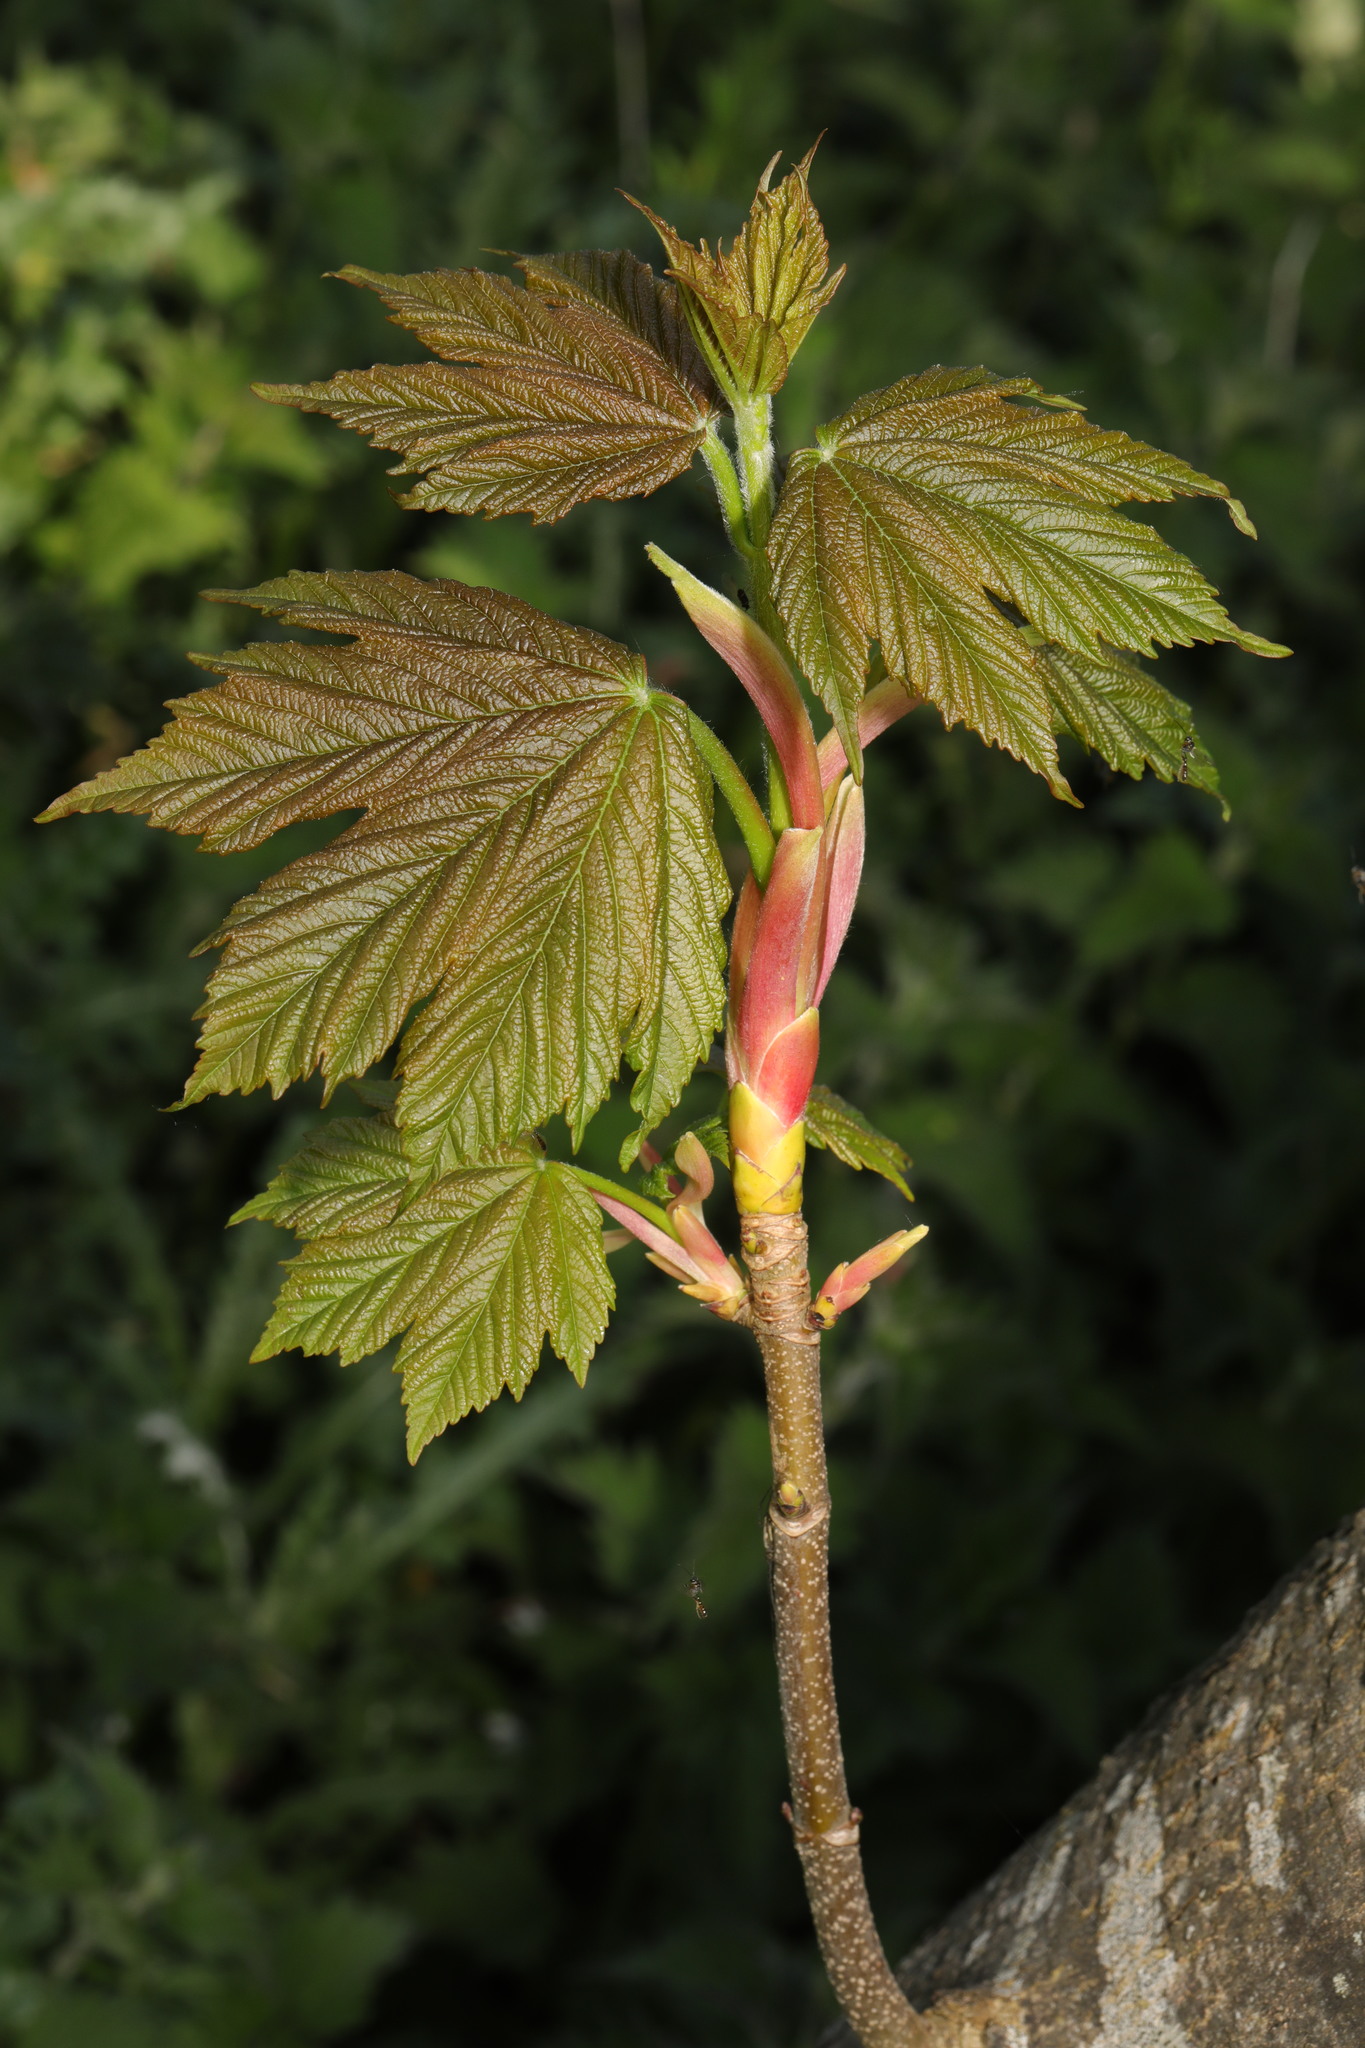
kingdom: Plantae
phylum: Tracheophyta
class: Magnoliopsida
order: Sapindales
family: Sapindaceae
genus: Acer
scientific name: Acer pseudoplatanus
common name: Sycamore
